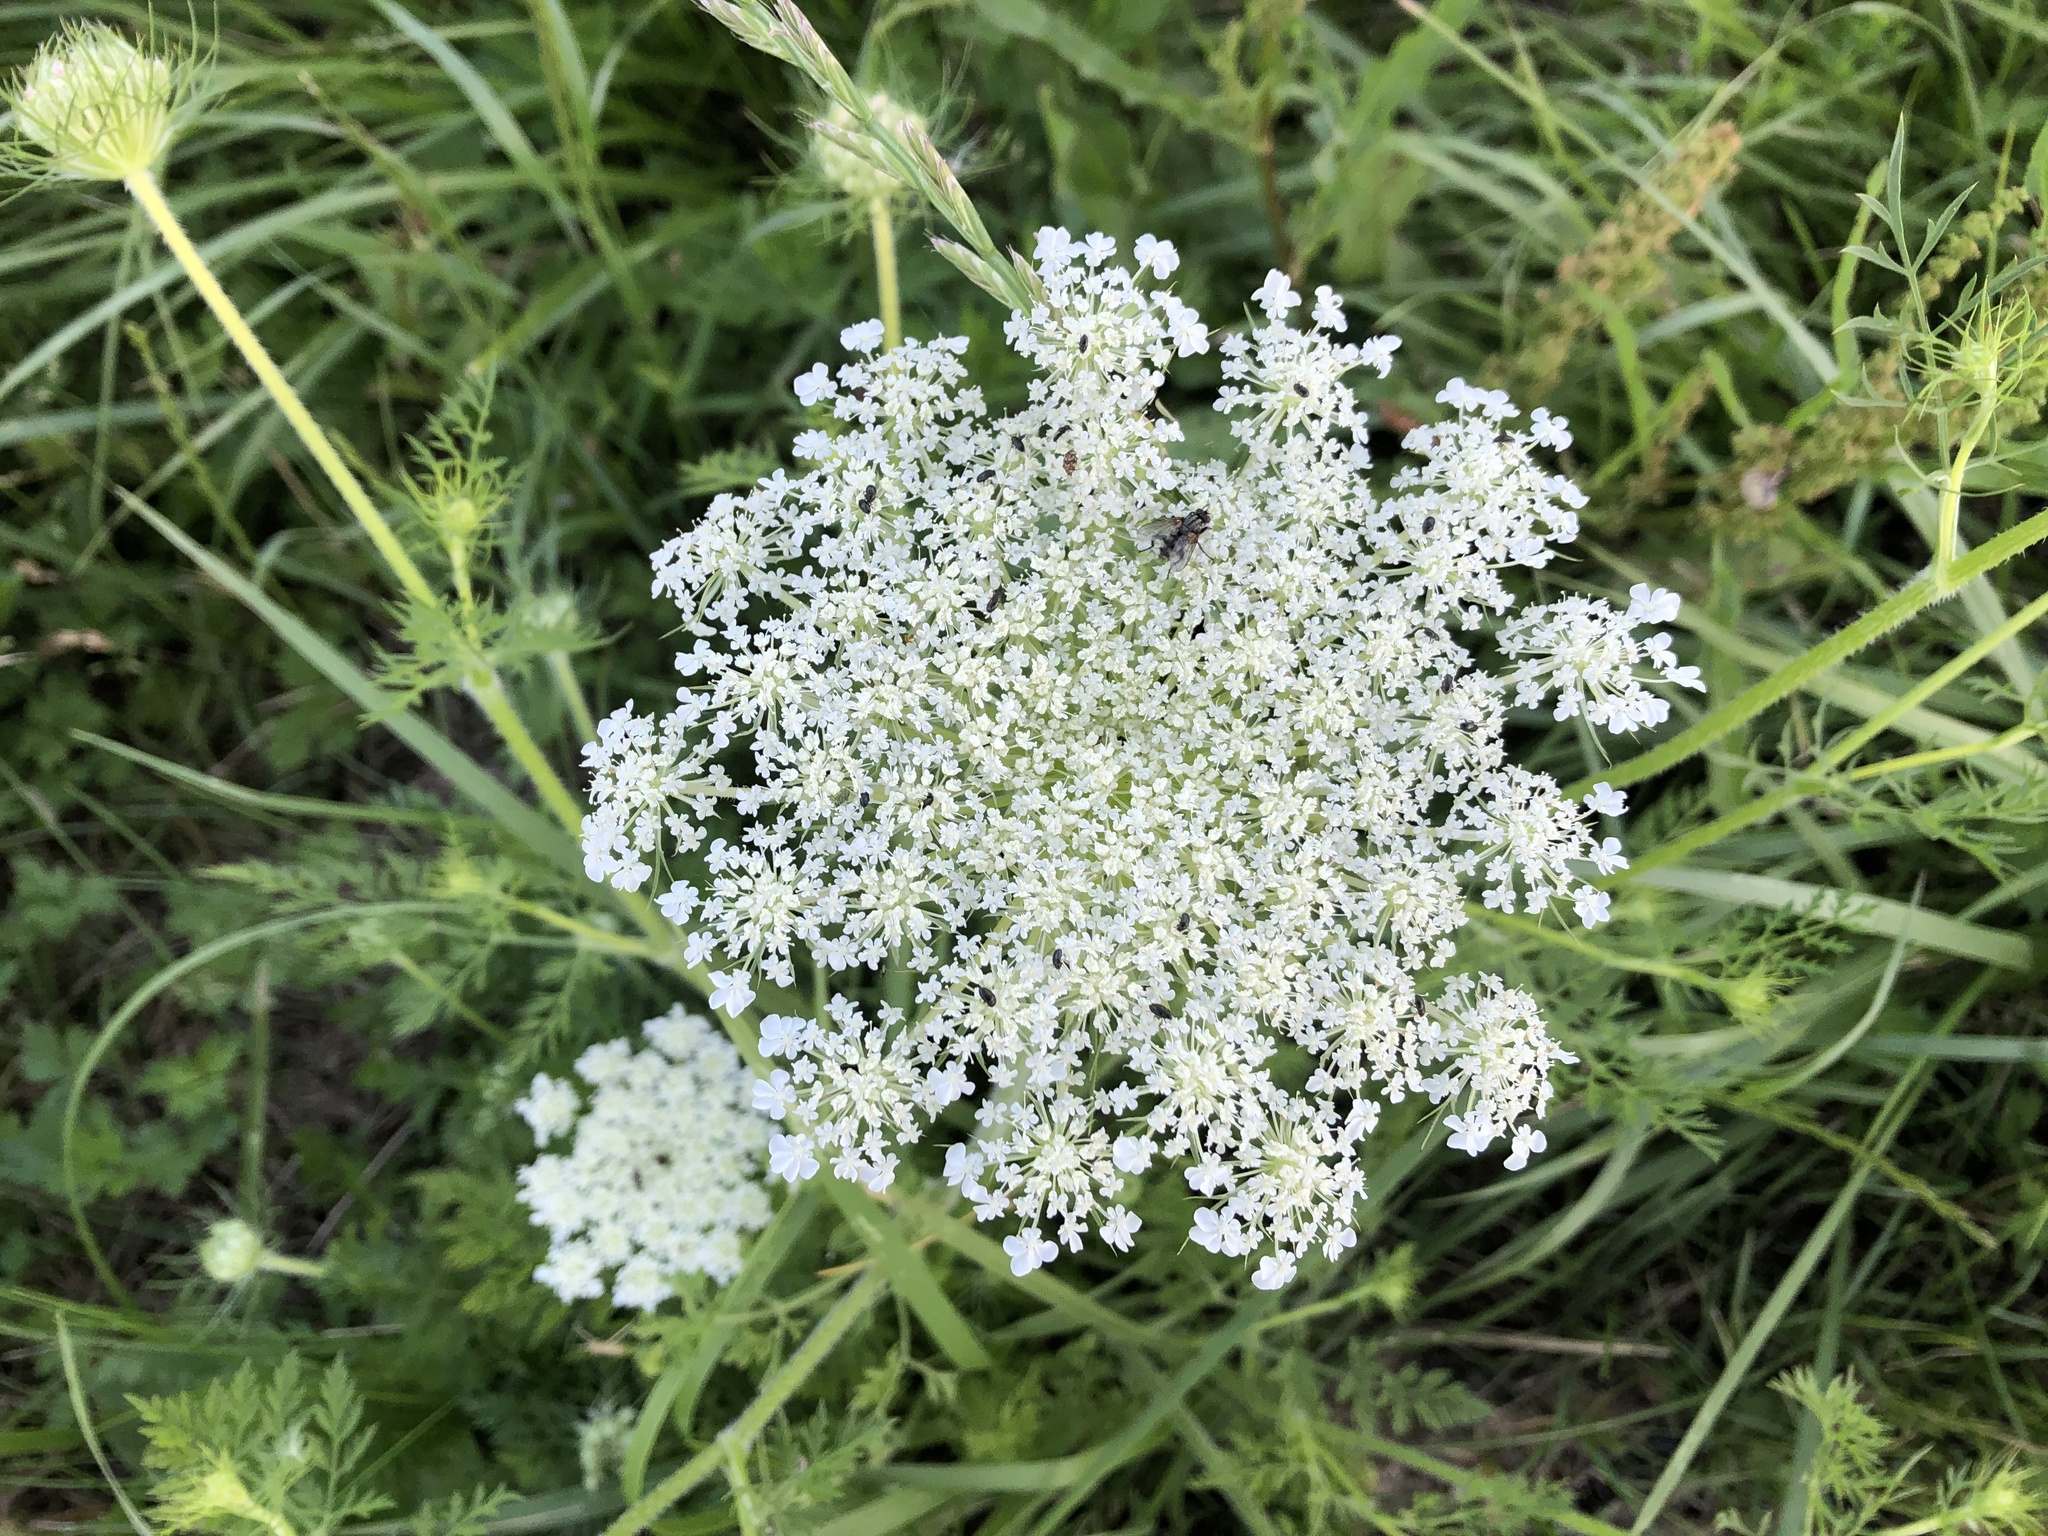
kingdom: Plantae
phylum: Tracheophyta
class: Magnoliopsida
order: Apiales
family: Apiaceae
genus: Daucus
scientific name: Daucus carota
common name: Wild carrot
